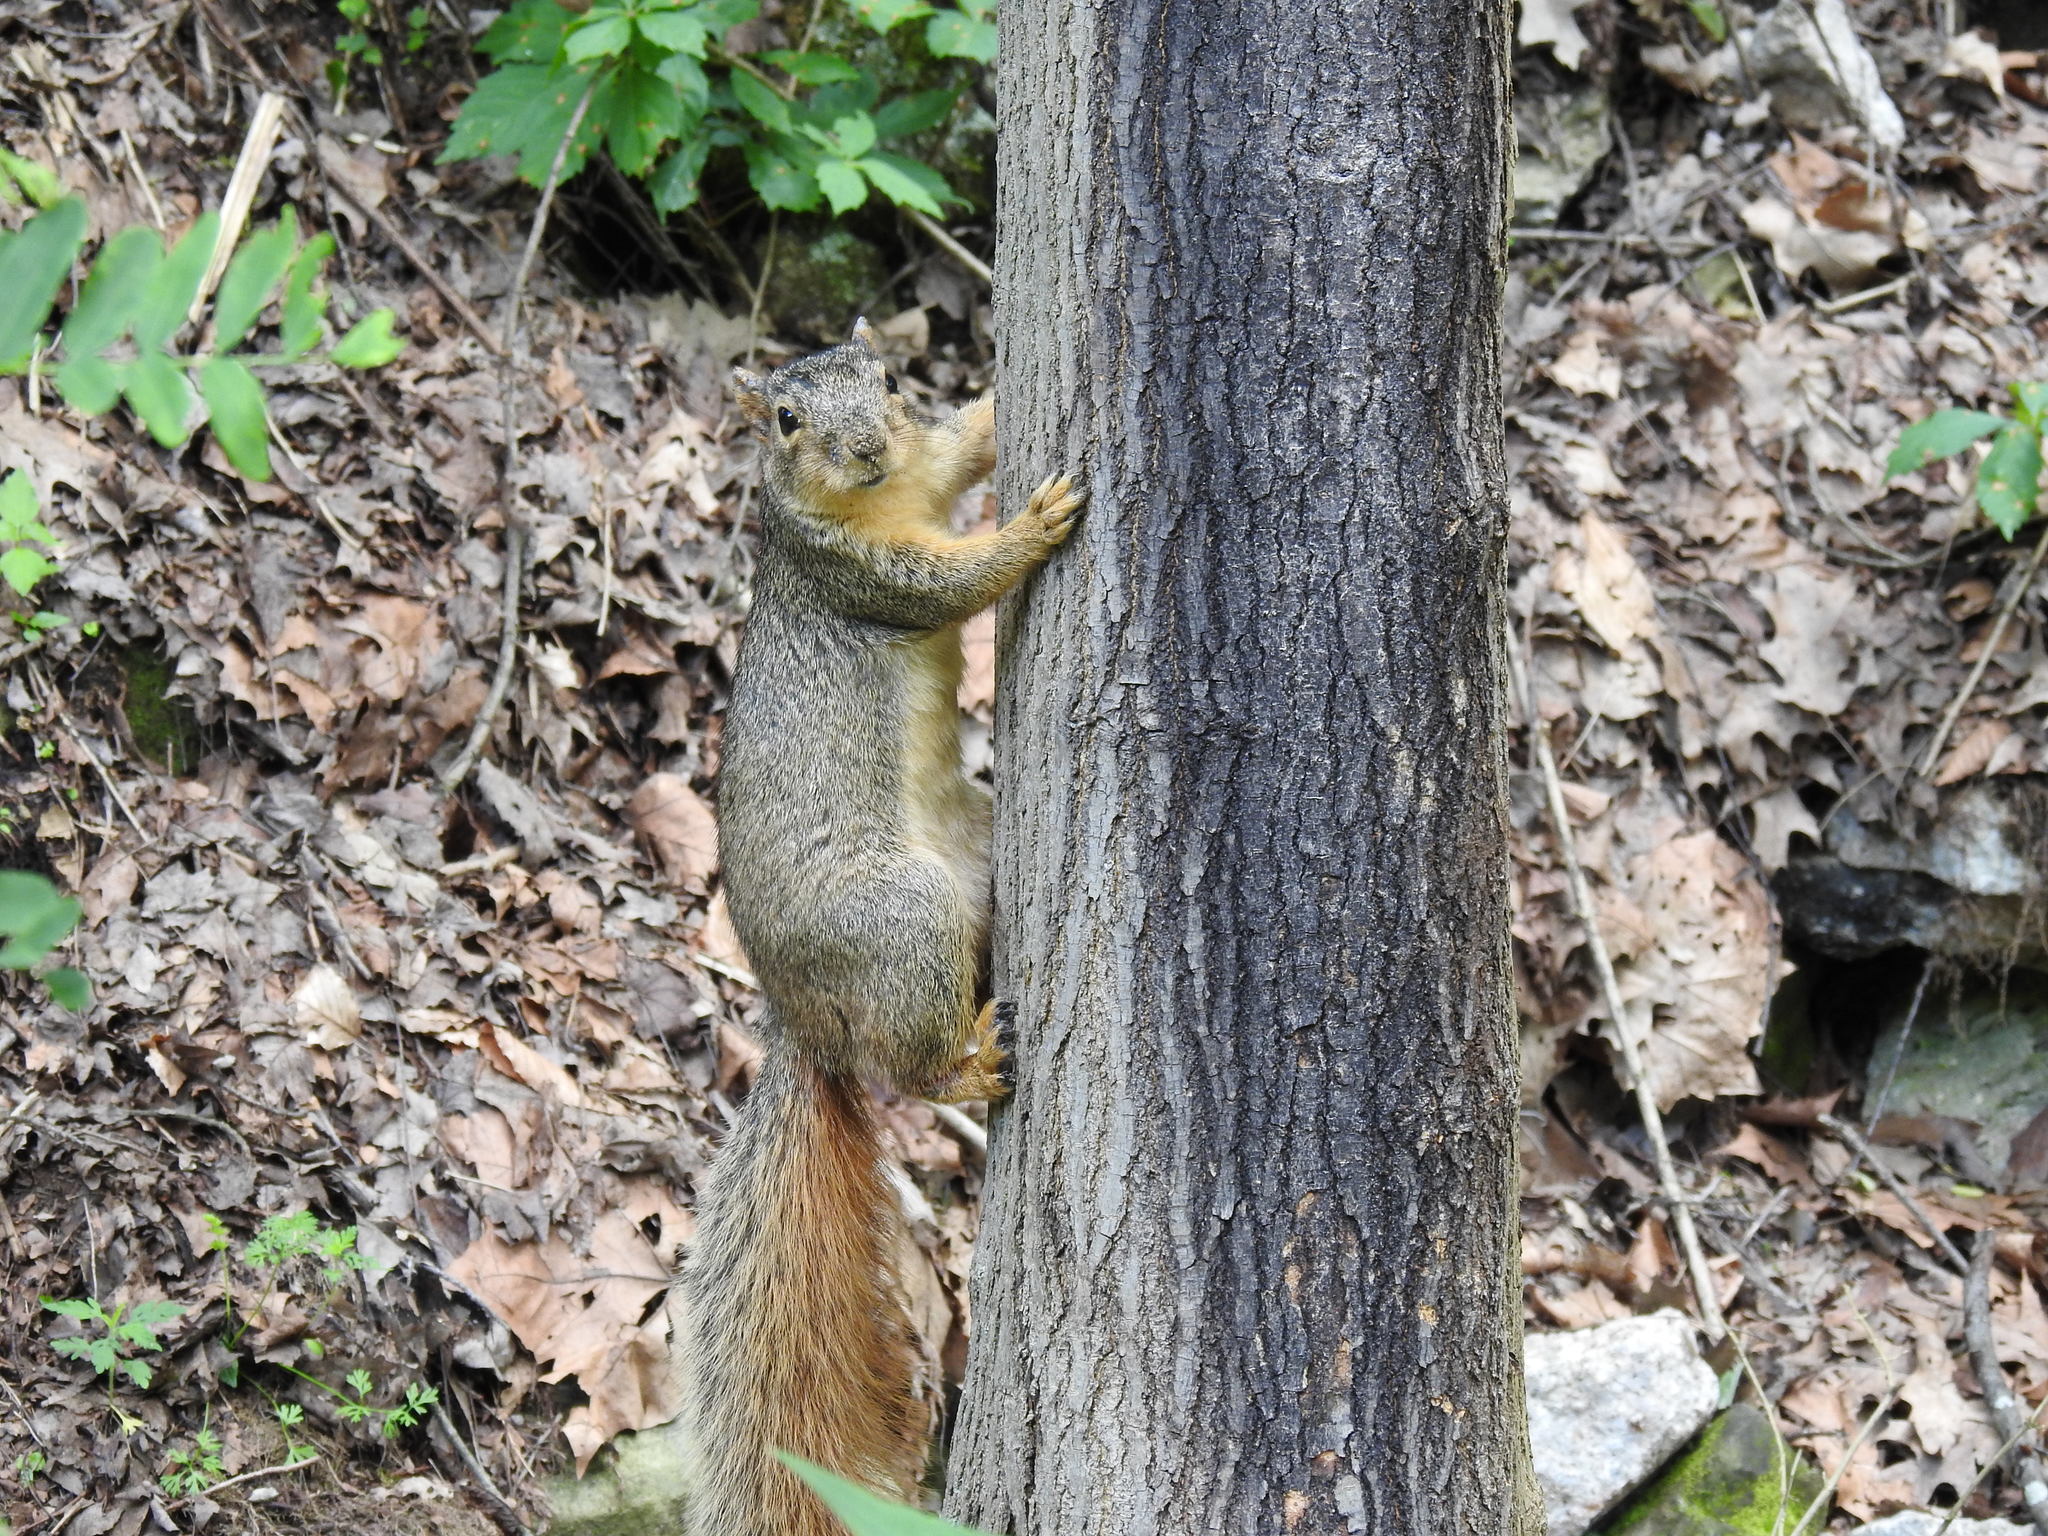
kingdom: Animalia
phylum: Chordata
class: Mammalia
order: Rodentia
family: Sciuridae
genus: Sciurus
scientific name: Sciurus niger
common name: Fox squirrel
